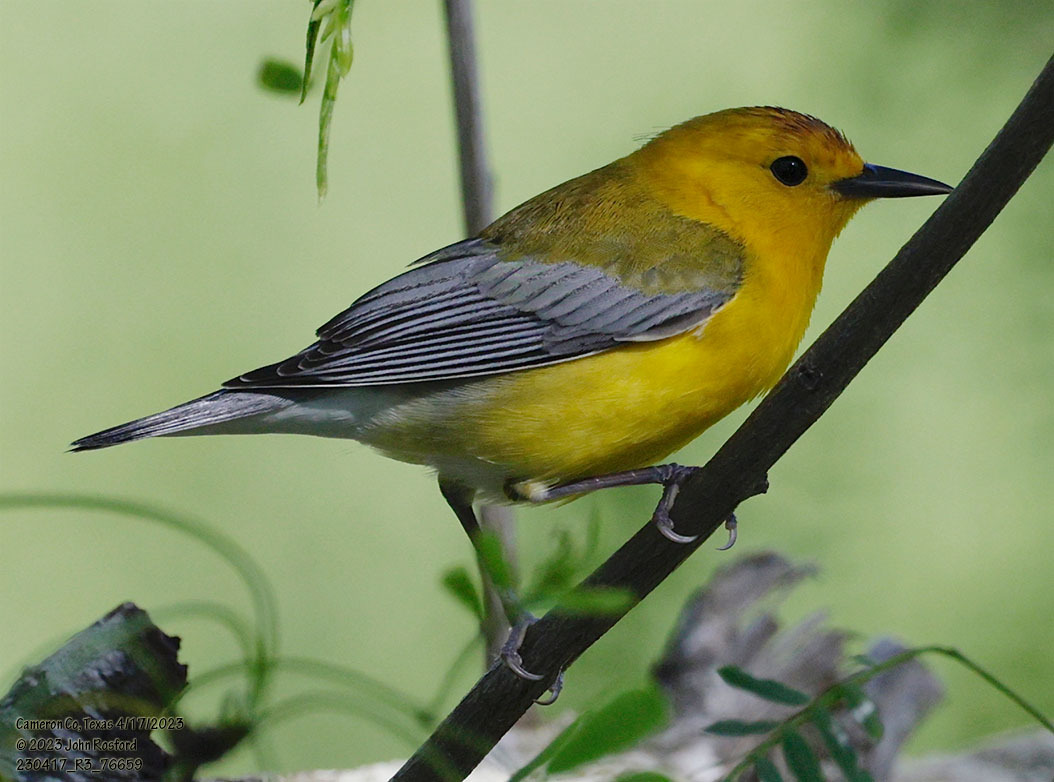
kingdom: Animalia
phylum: Chordata
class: Aves
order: Passeriformes
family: Parulidae
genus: Protonotaria
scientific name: Protonotaria citrea
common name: Prothonotary warbler
